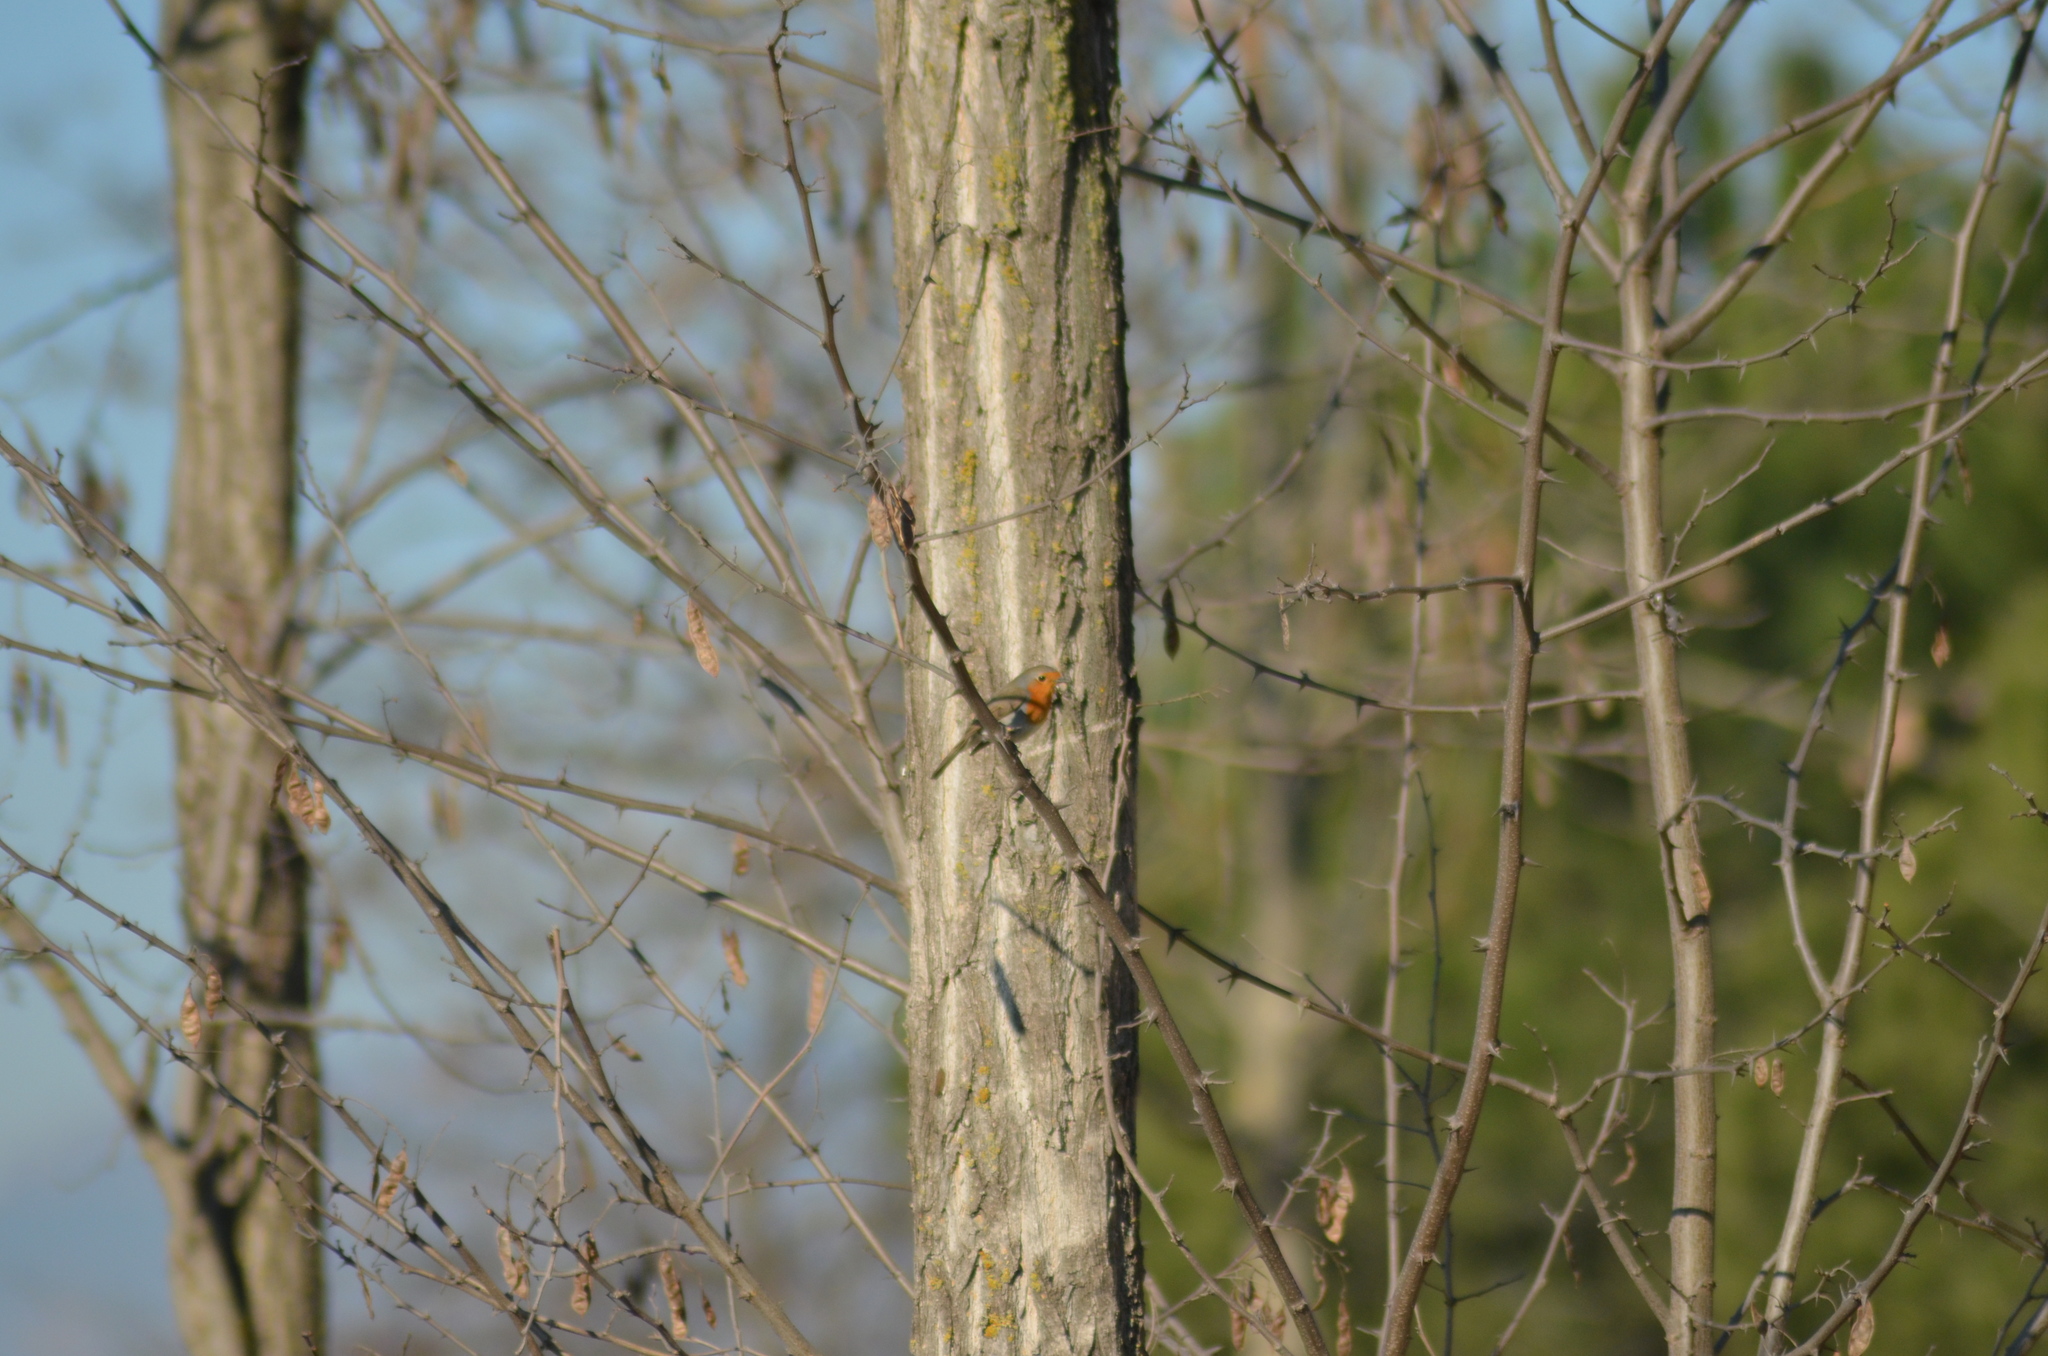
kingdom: Animalia
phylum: Chordata
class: Aves
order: Passeriformes
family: Muscicapidae
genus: Erithacus
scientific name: Erithacus rubecula
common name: European robin
